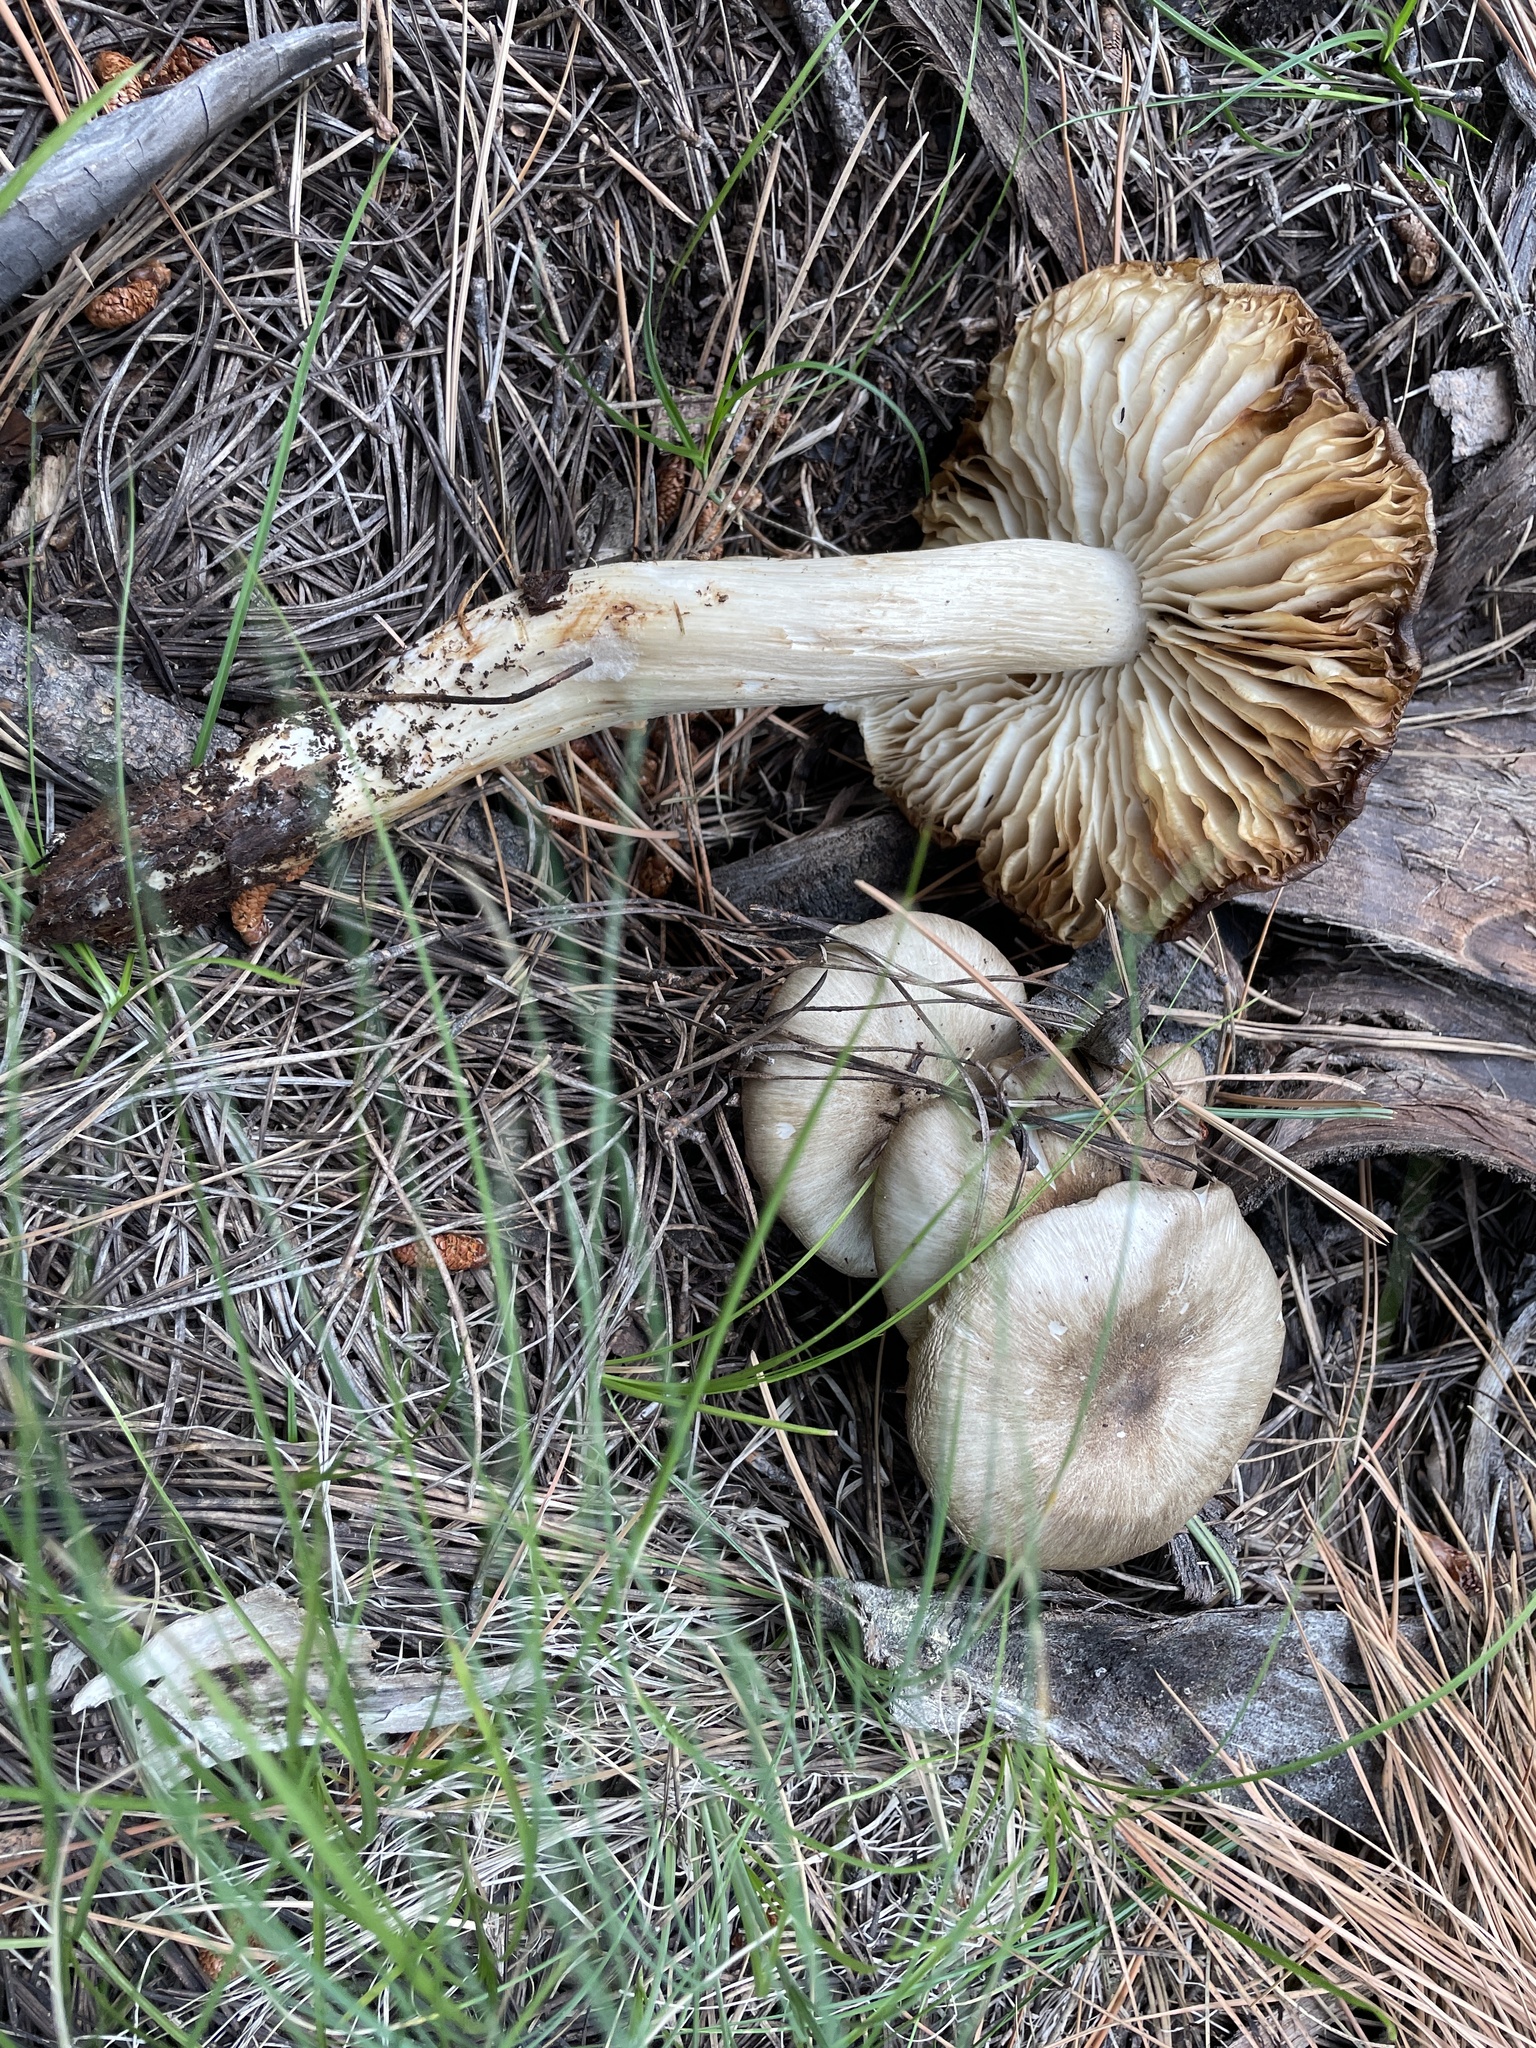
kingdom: Fungi
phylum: Basidiomycota
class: Agaricomycetes
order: Agaricales
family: Tricholomataceae
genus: Megacollybia
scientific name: Megacollybia fallax
